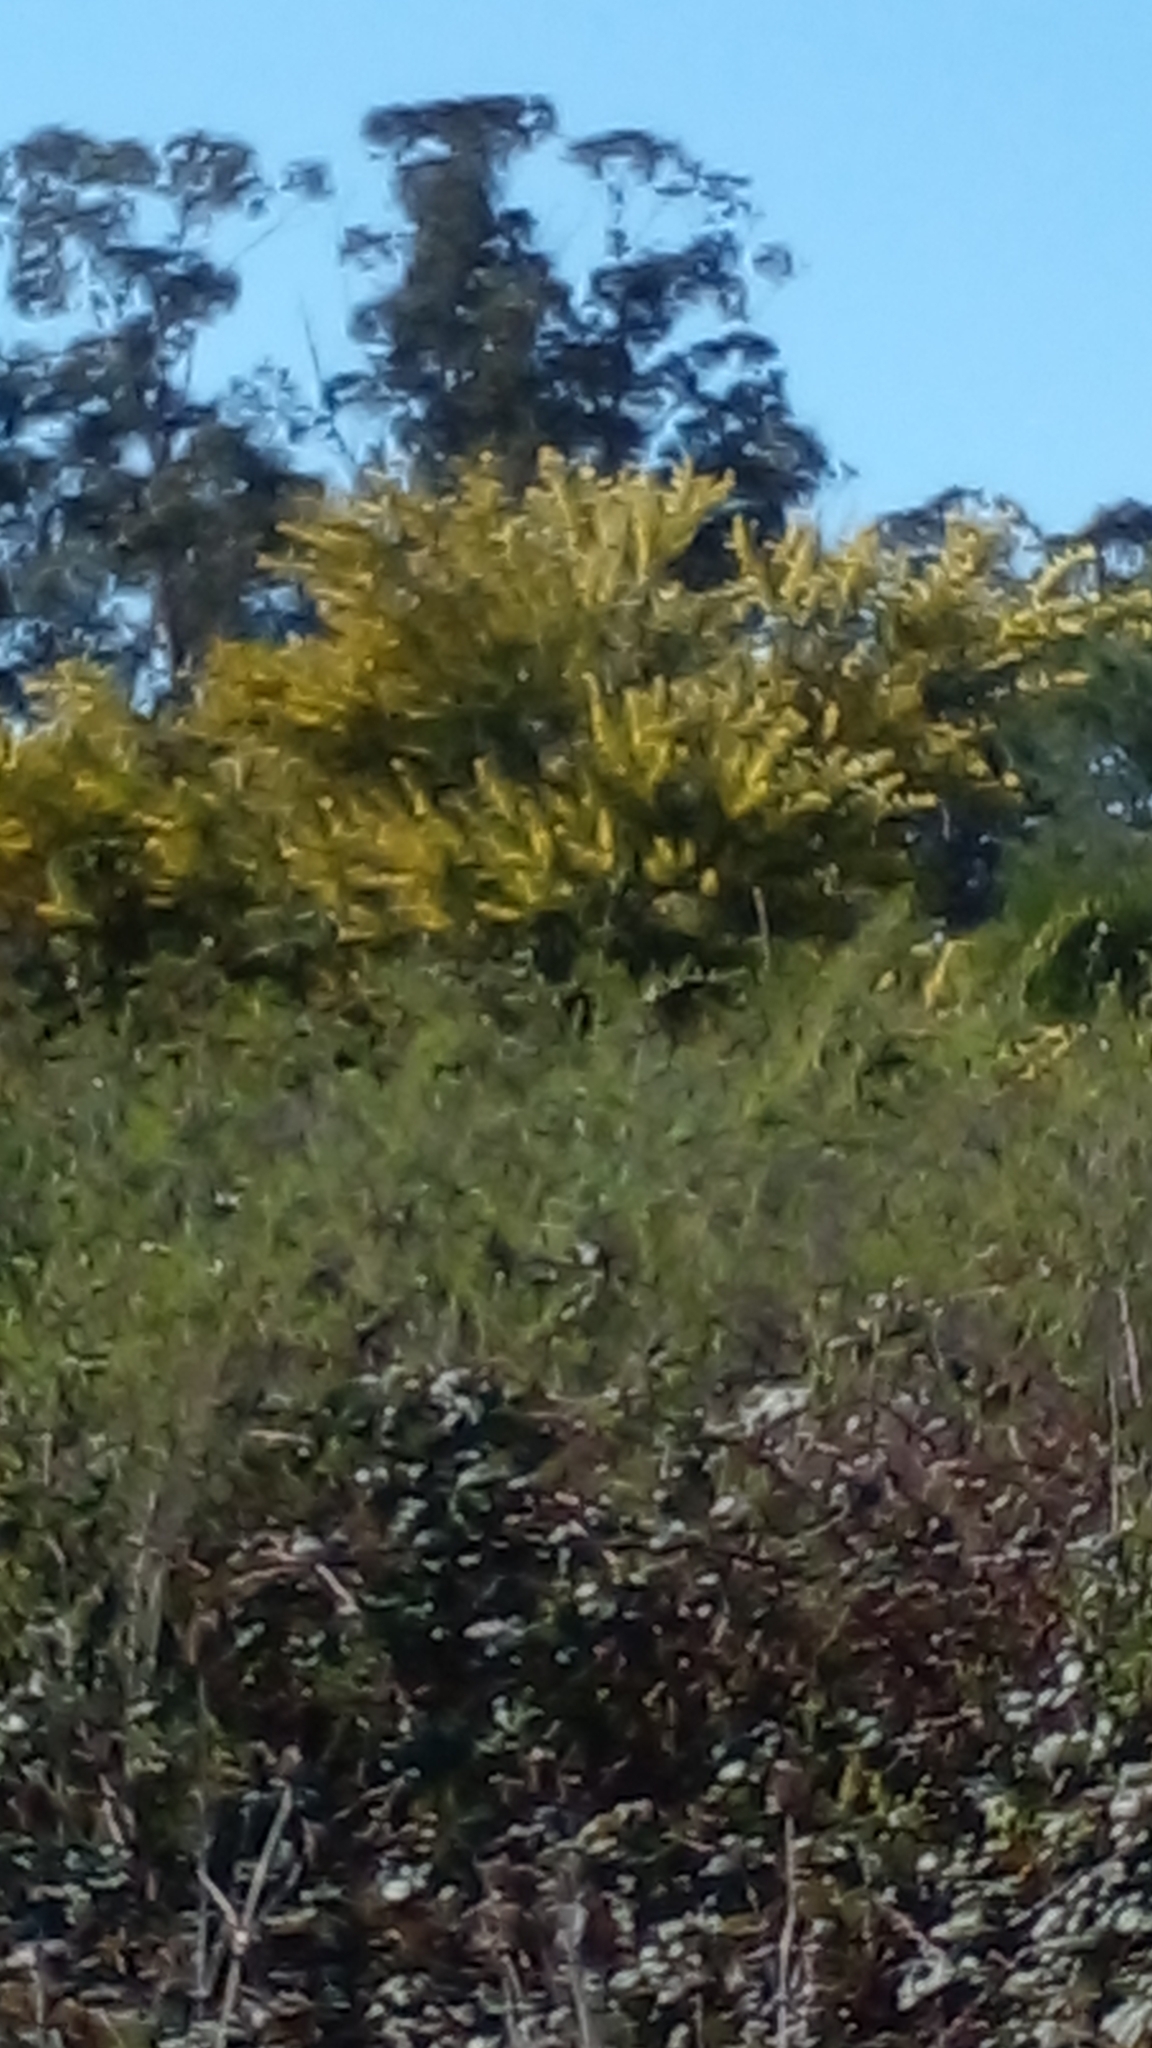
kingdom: Plantae
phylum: Tracheophyta
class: Magnoliopsida
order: Fabales
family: Fabaceae
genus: Acacia
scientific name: Acacia longifolia
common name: Sydney golden wattle
